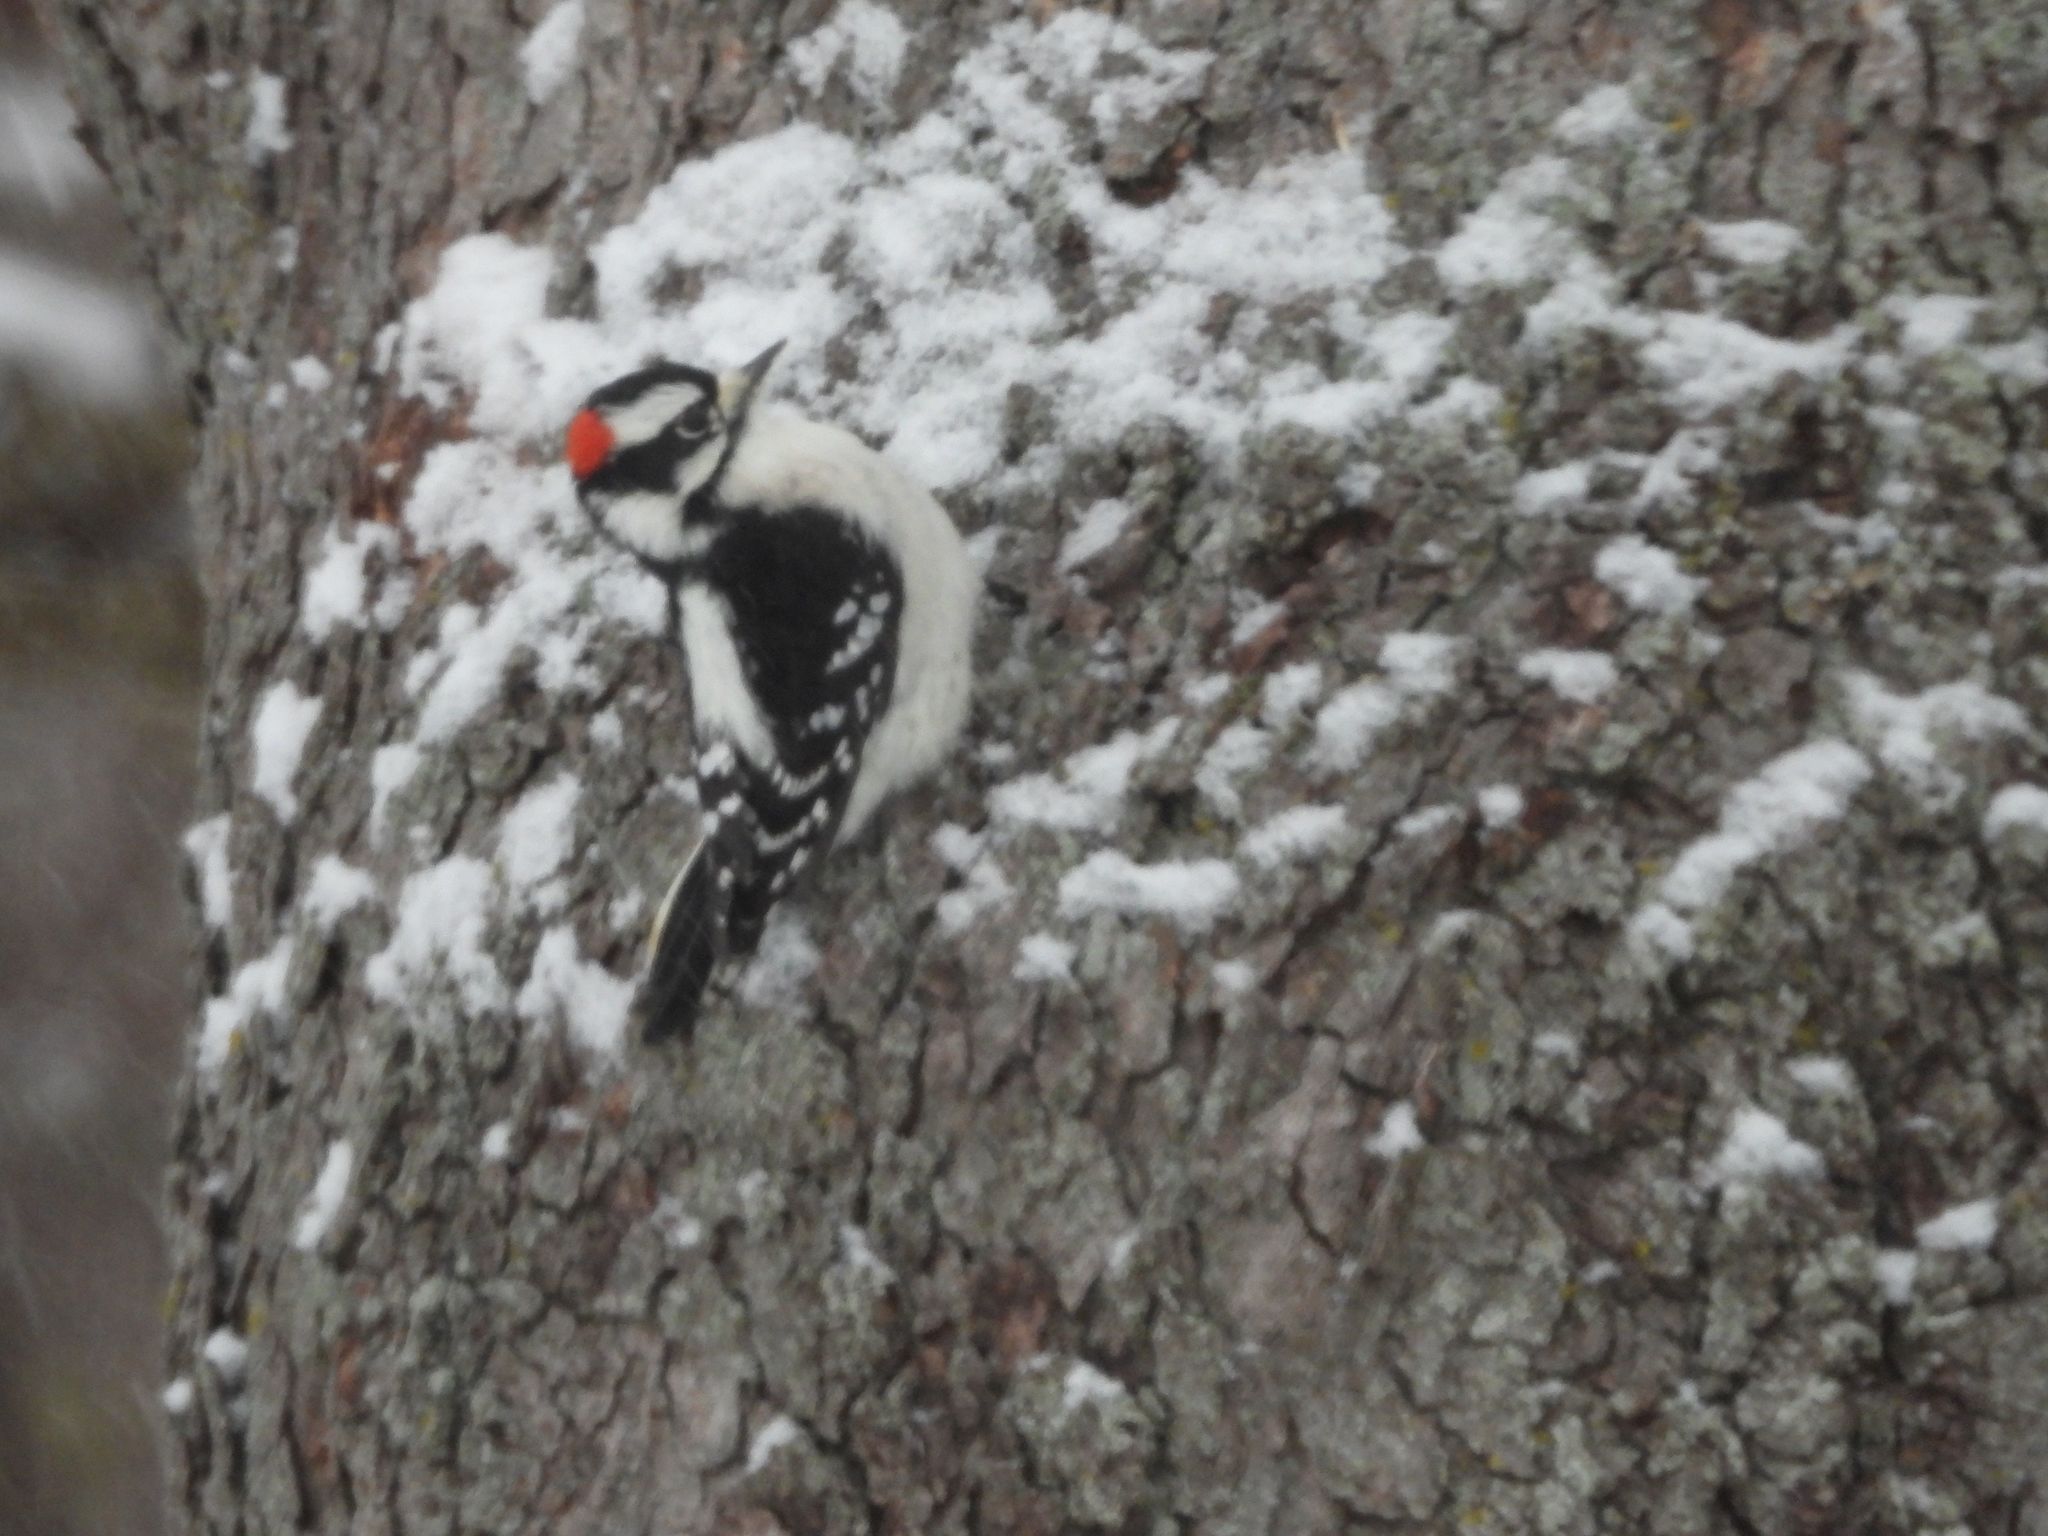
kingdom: Animalia
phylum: Chordata
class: Aves
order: Piciformes
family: Picidae
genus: Dryobates
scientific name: Dryobates pubescens
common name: Downy woodpecker
